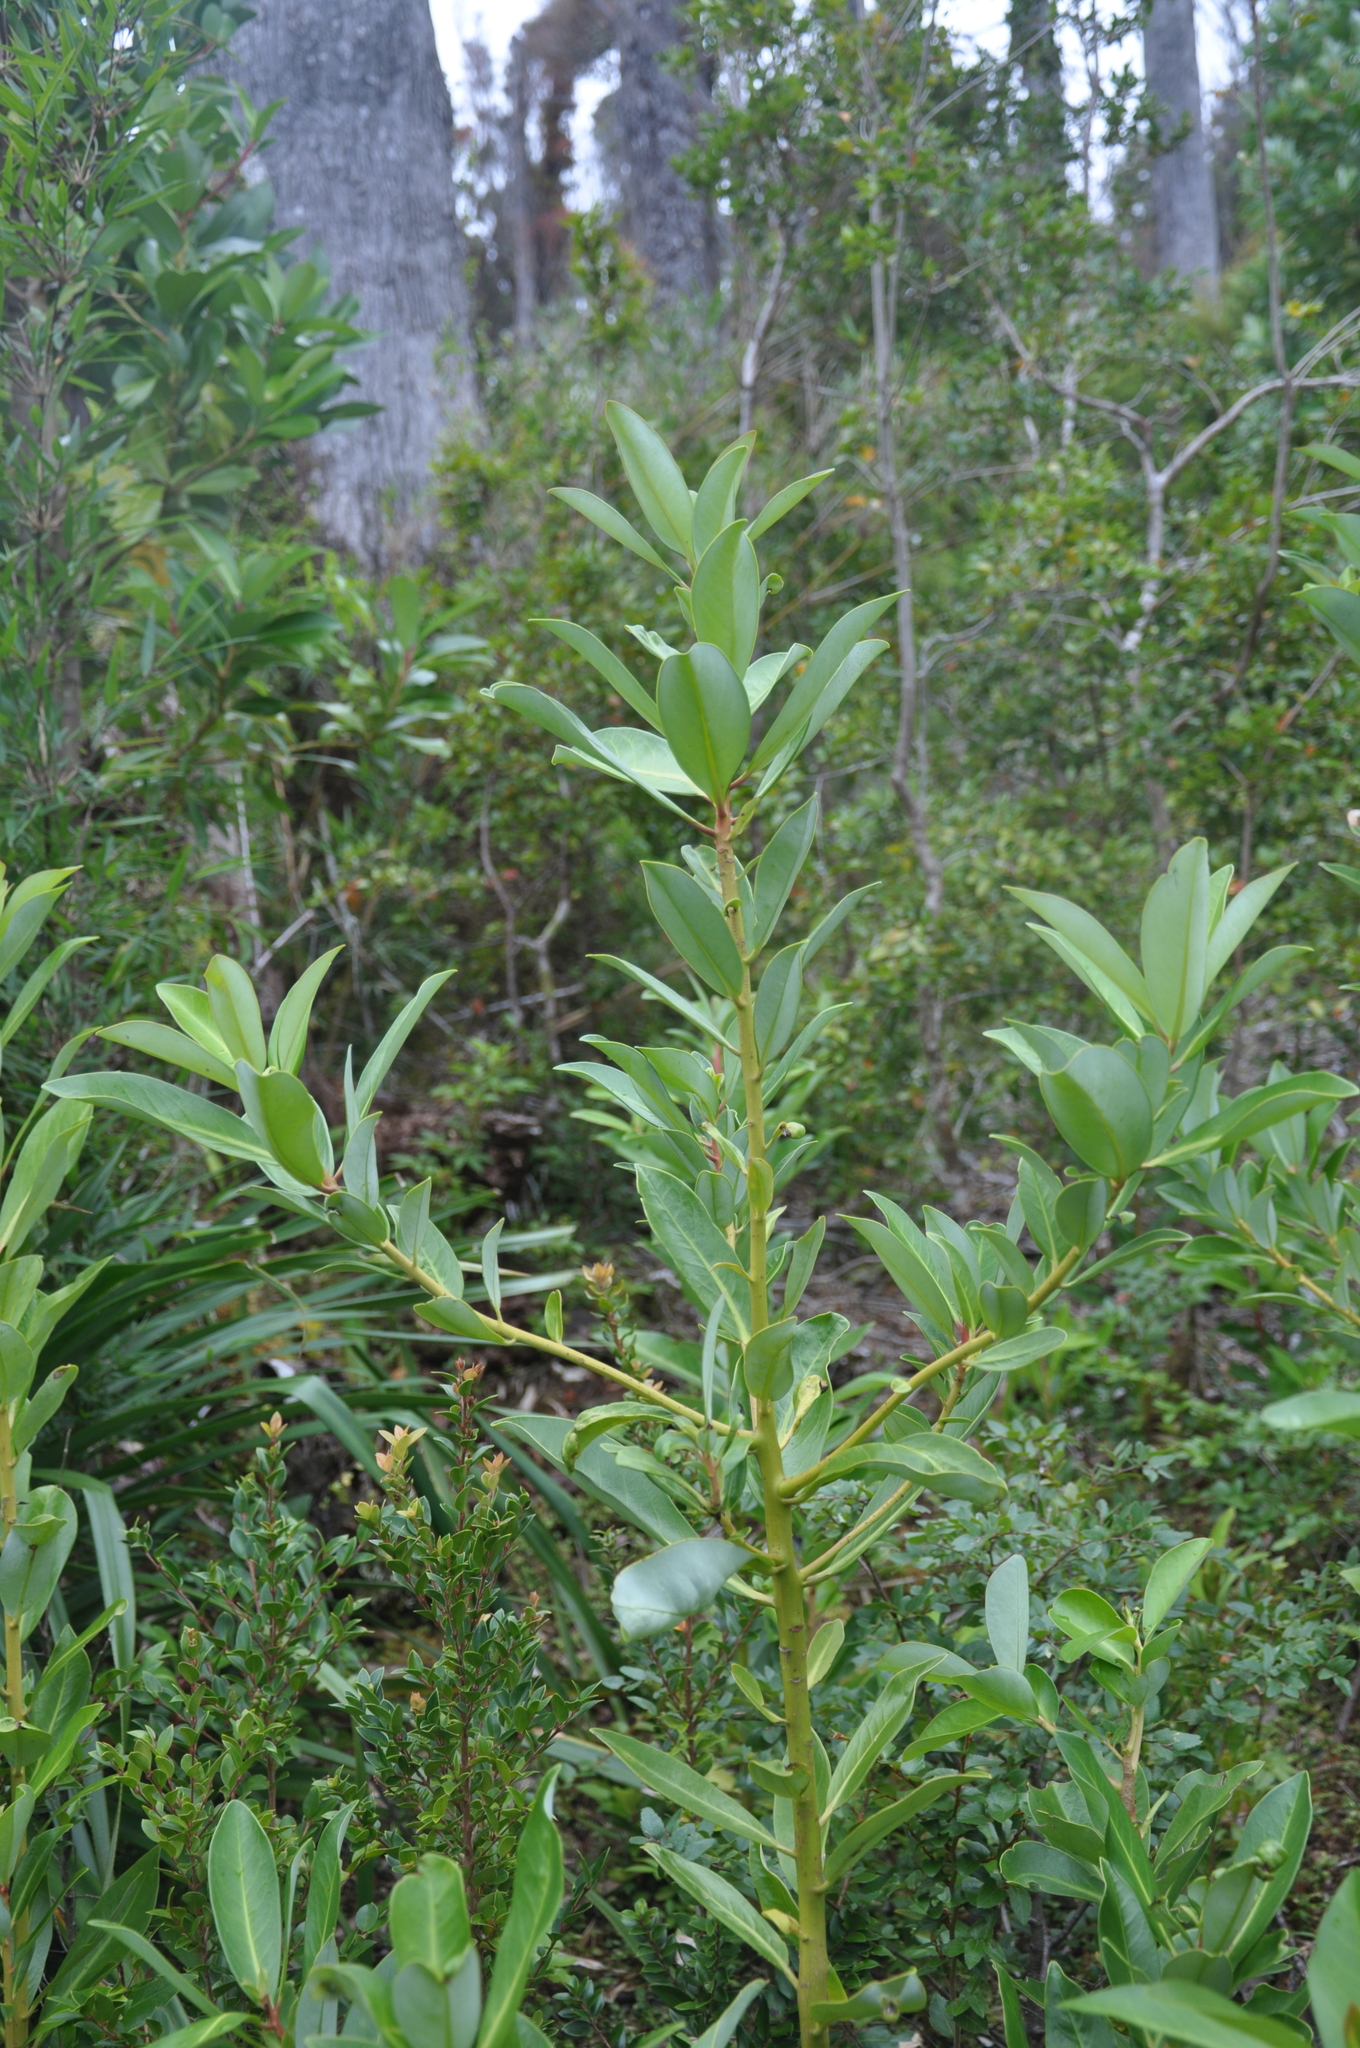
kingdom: Plantae
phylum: Tracheophyta
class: Magnoliopsida
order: Canellales
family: Winteraceae
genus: Drimys
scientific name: Drimys winteri
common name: Winter's-bark
